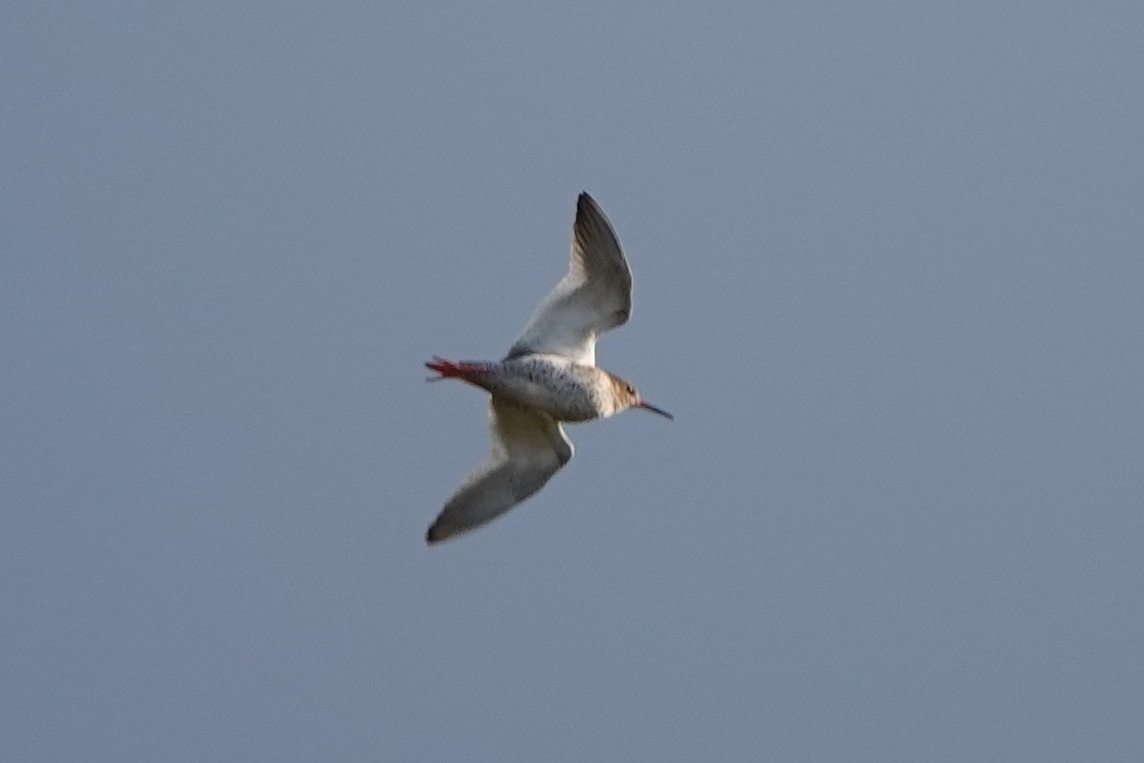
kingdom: Animalia
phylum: Chordata
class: Aves
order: Charadriiformes
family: Scolopacidae
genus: Tringa
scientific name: Tringa totanus
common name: Common redshank
